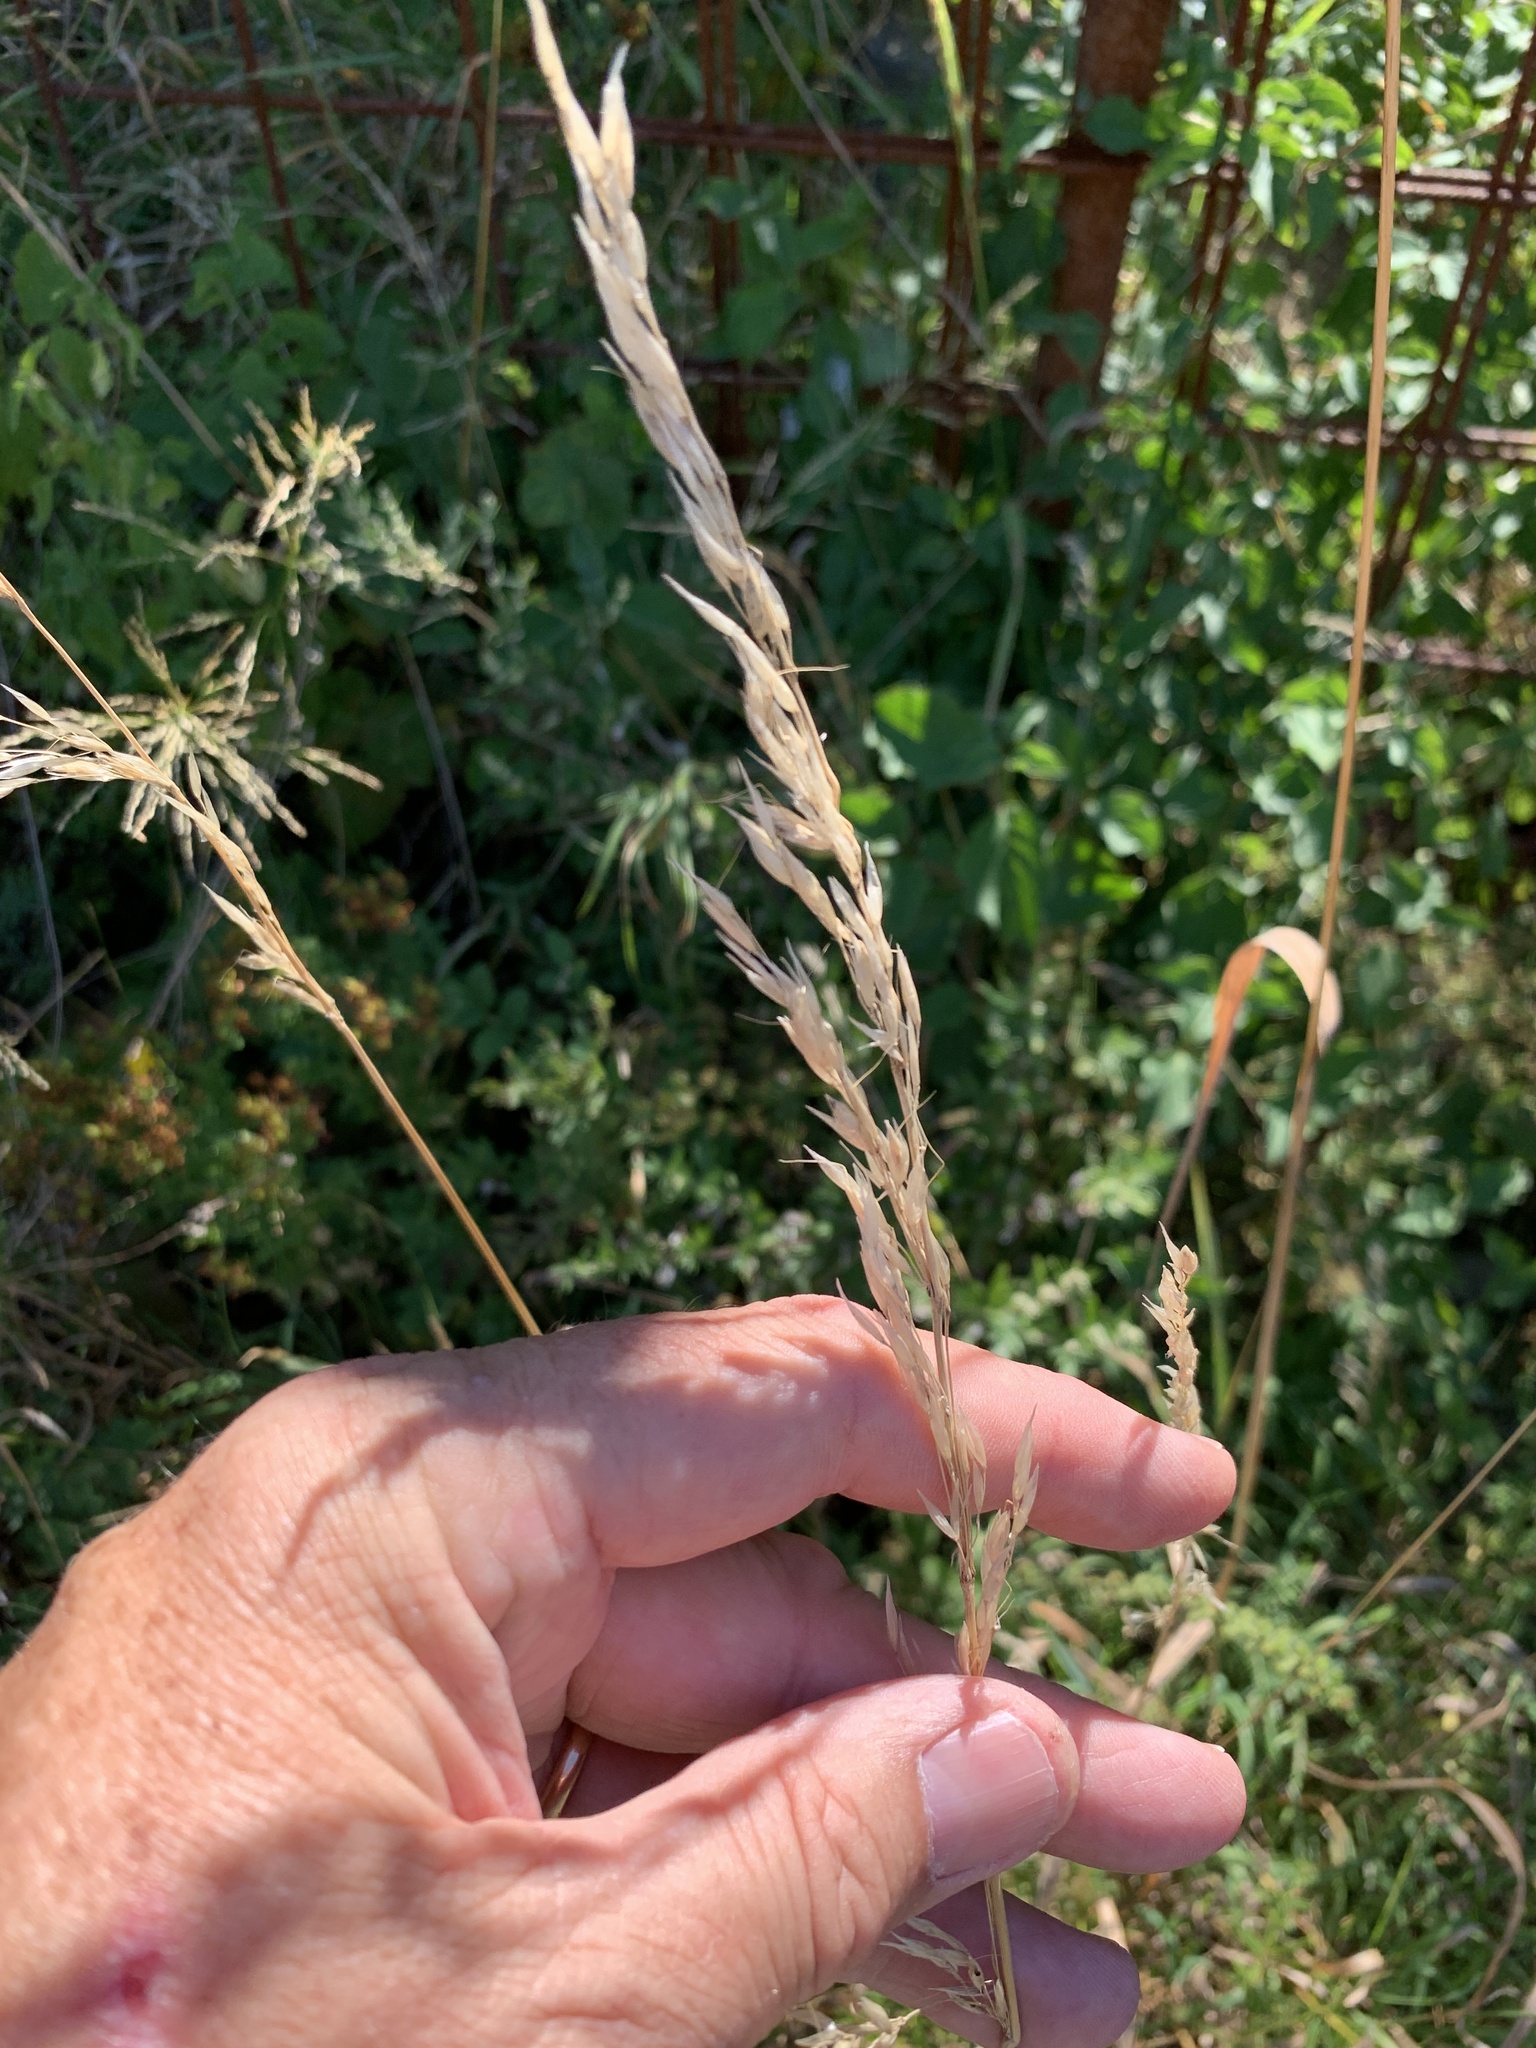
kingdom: Plantae
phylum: Tracheophyta
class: Liliopsida
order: Poales
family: Poaceae
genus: Arrhenatherum
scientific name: Arrhenatherum elatius
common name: Tall oatgrass
